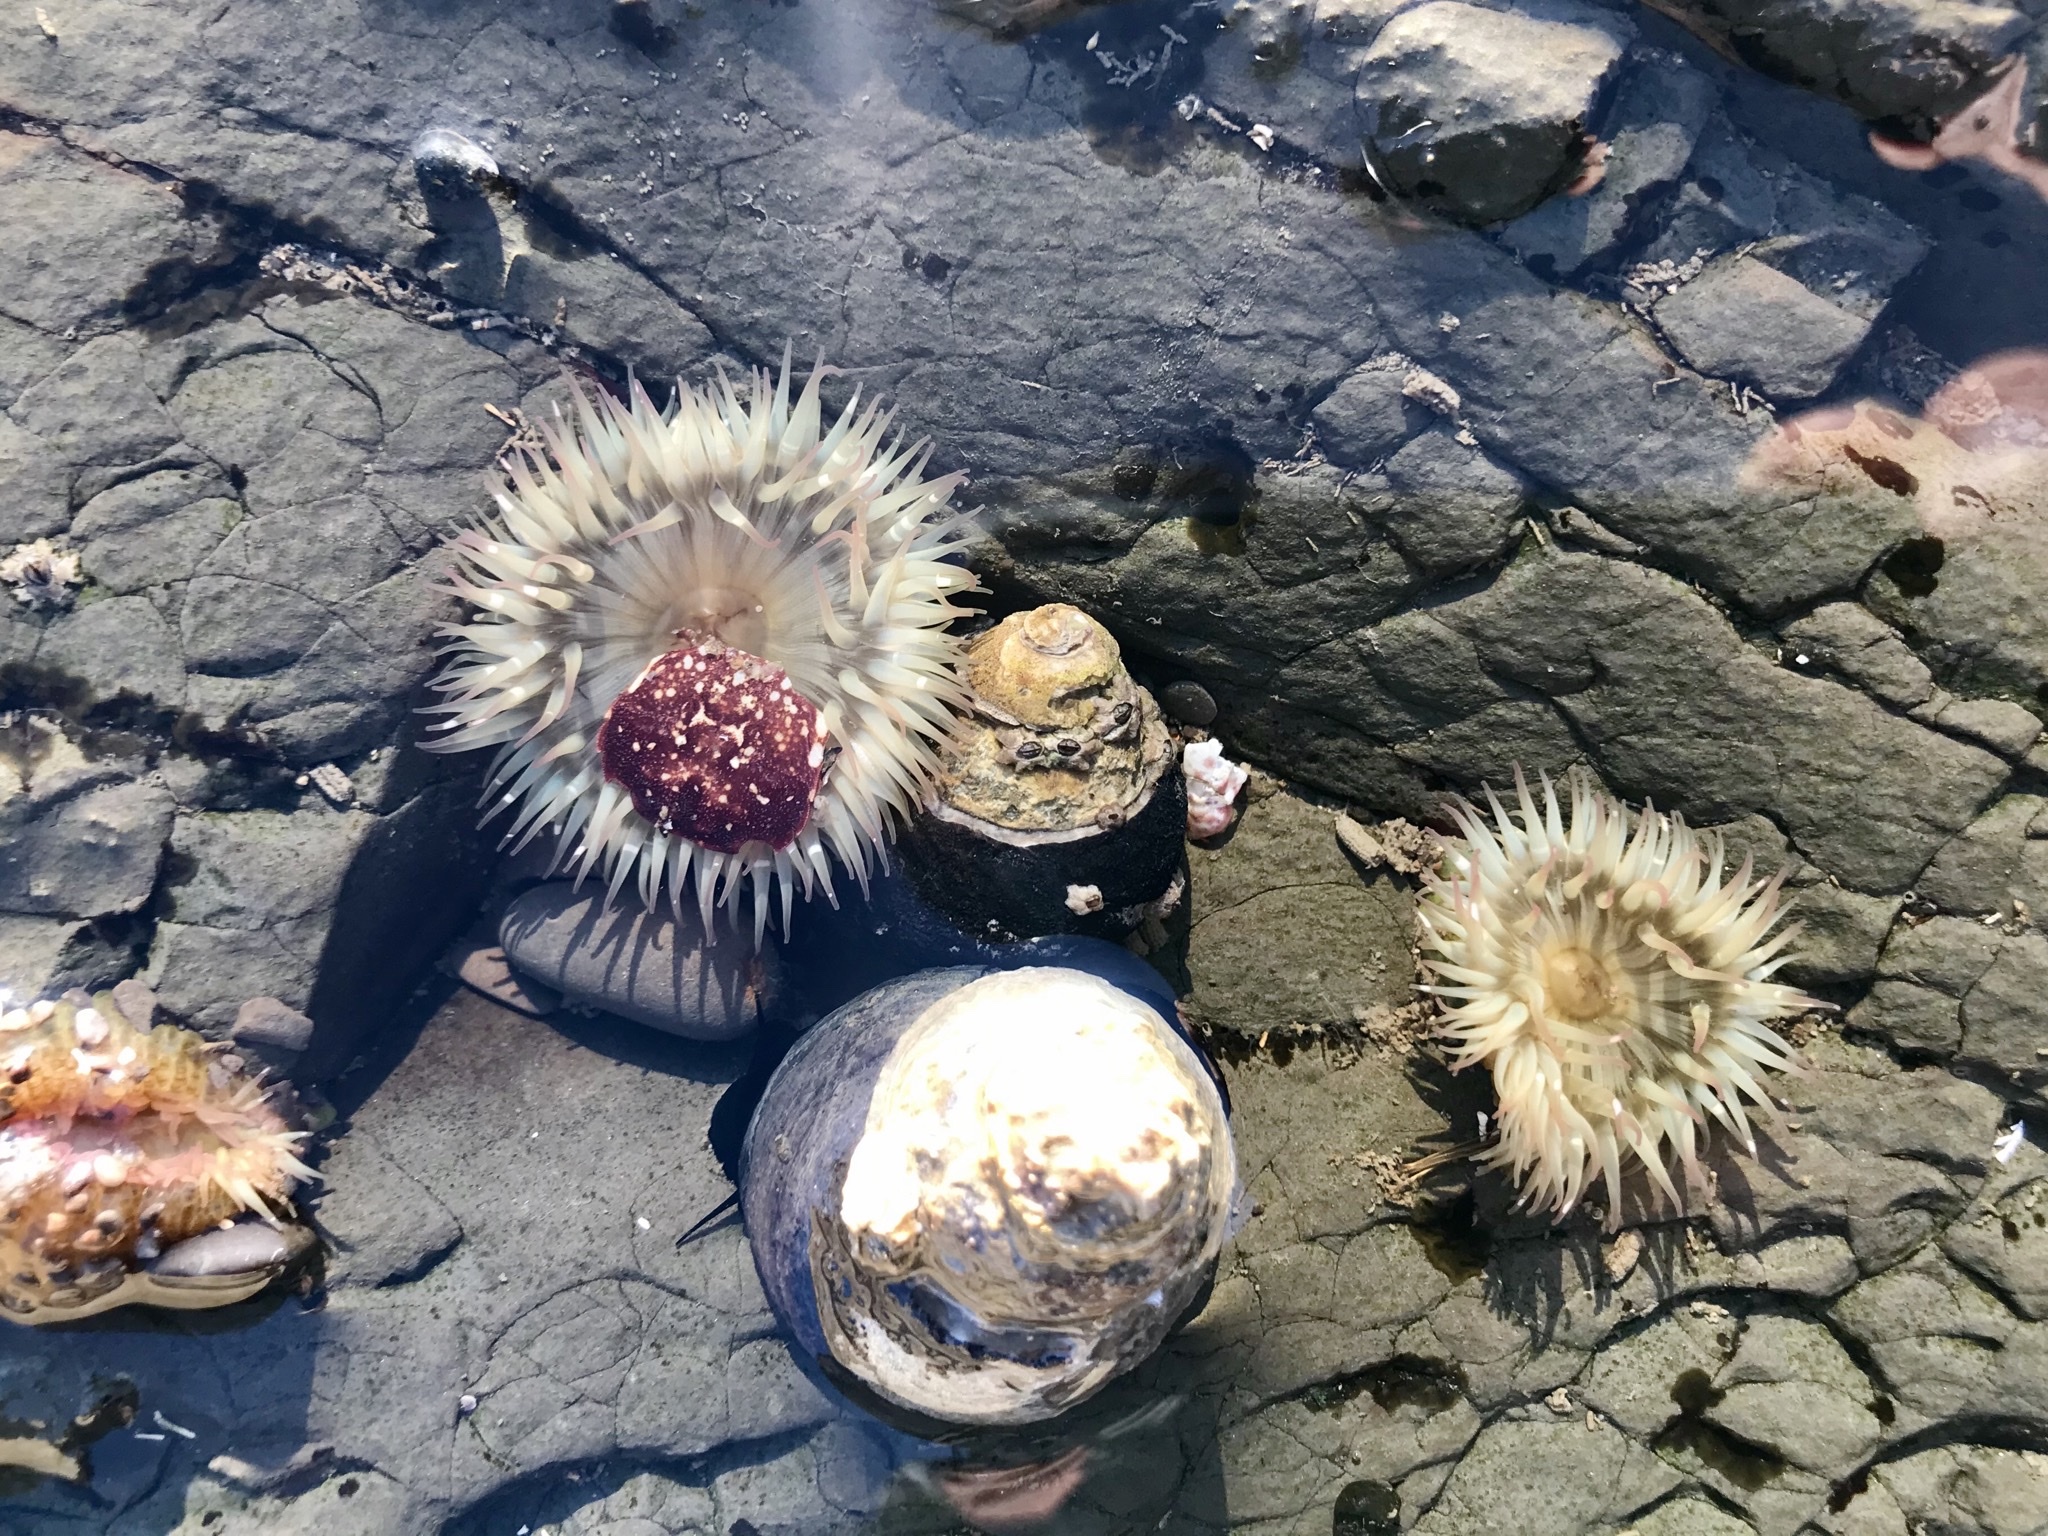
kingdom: Animalia
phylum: Cnidaria
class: Anthozoa
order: Actiniaria
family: Actiniidae
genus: Anthopleura
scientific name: Anthopleura elegantissima
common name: Clonal anemone
